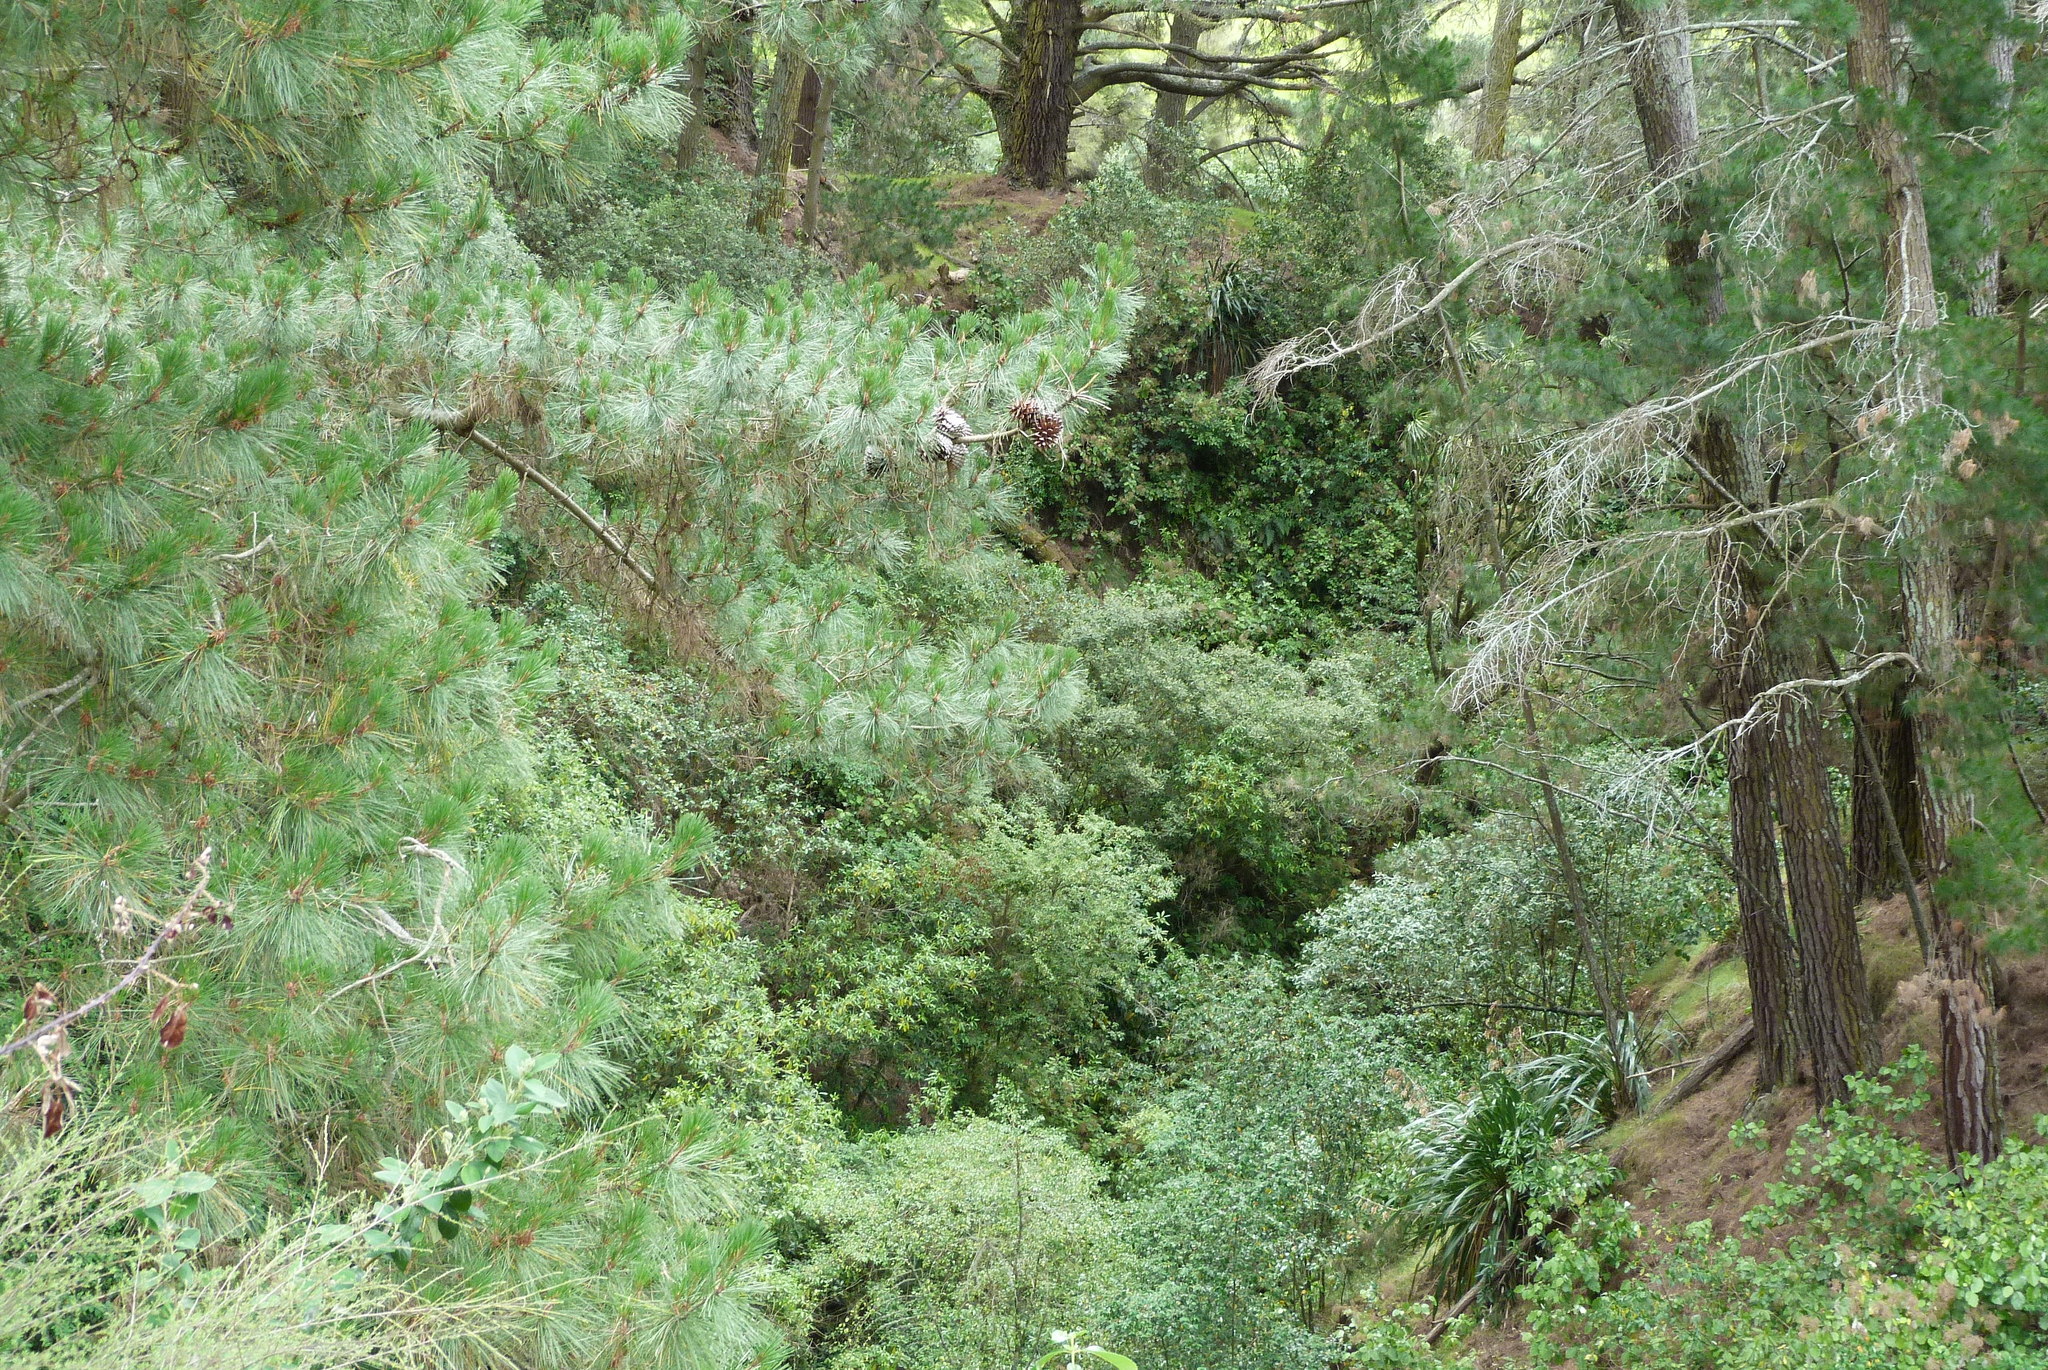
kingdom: Plantae
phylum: Tracheophyta
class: Pinopsida
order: Pinales
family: Pinaceae
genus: Pinus
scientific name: Pinus radiata
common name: Monterey pine
